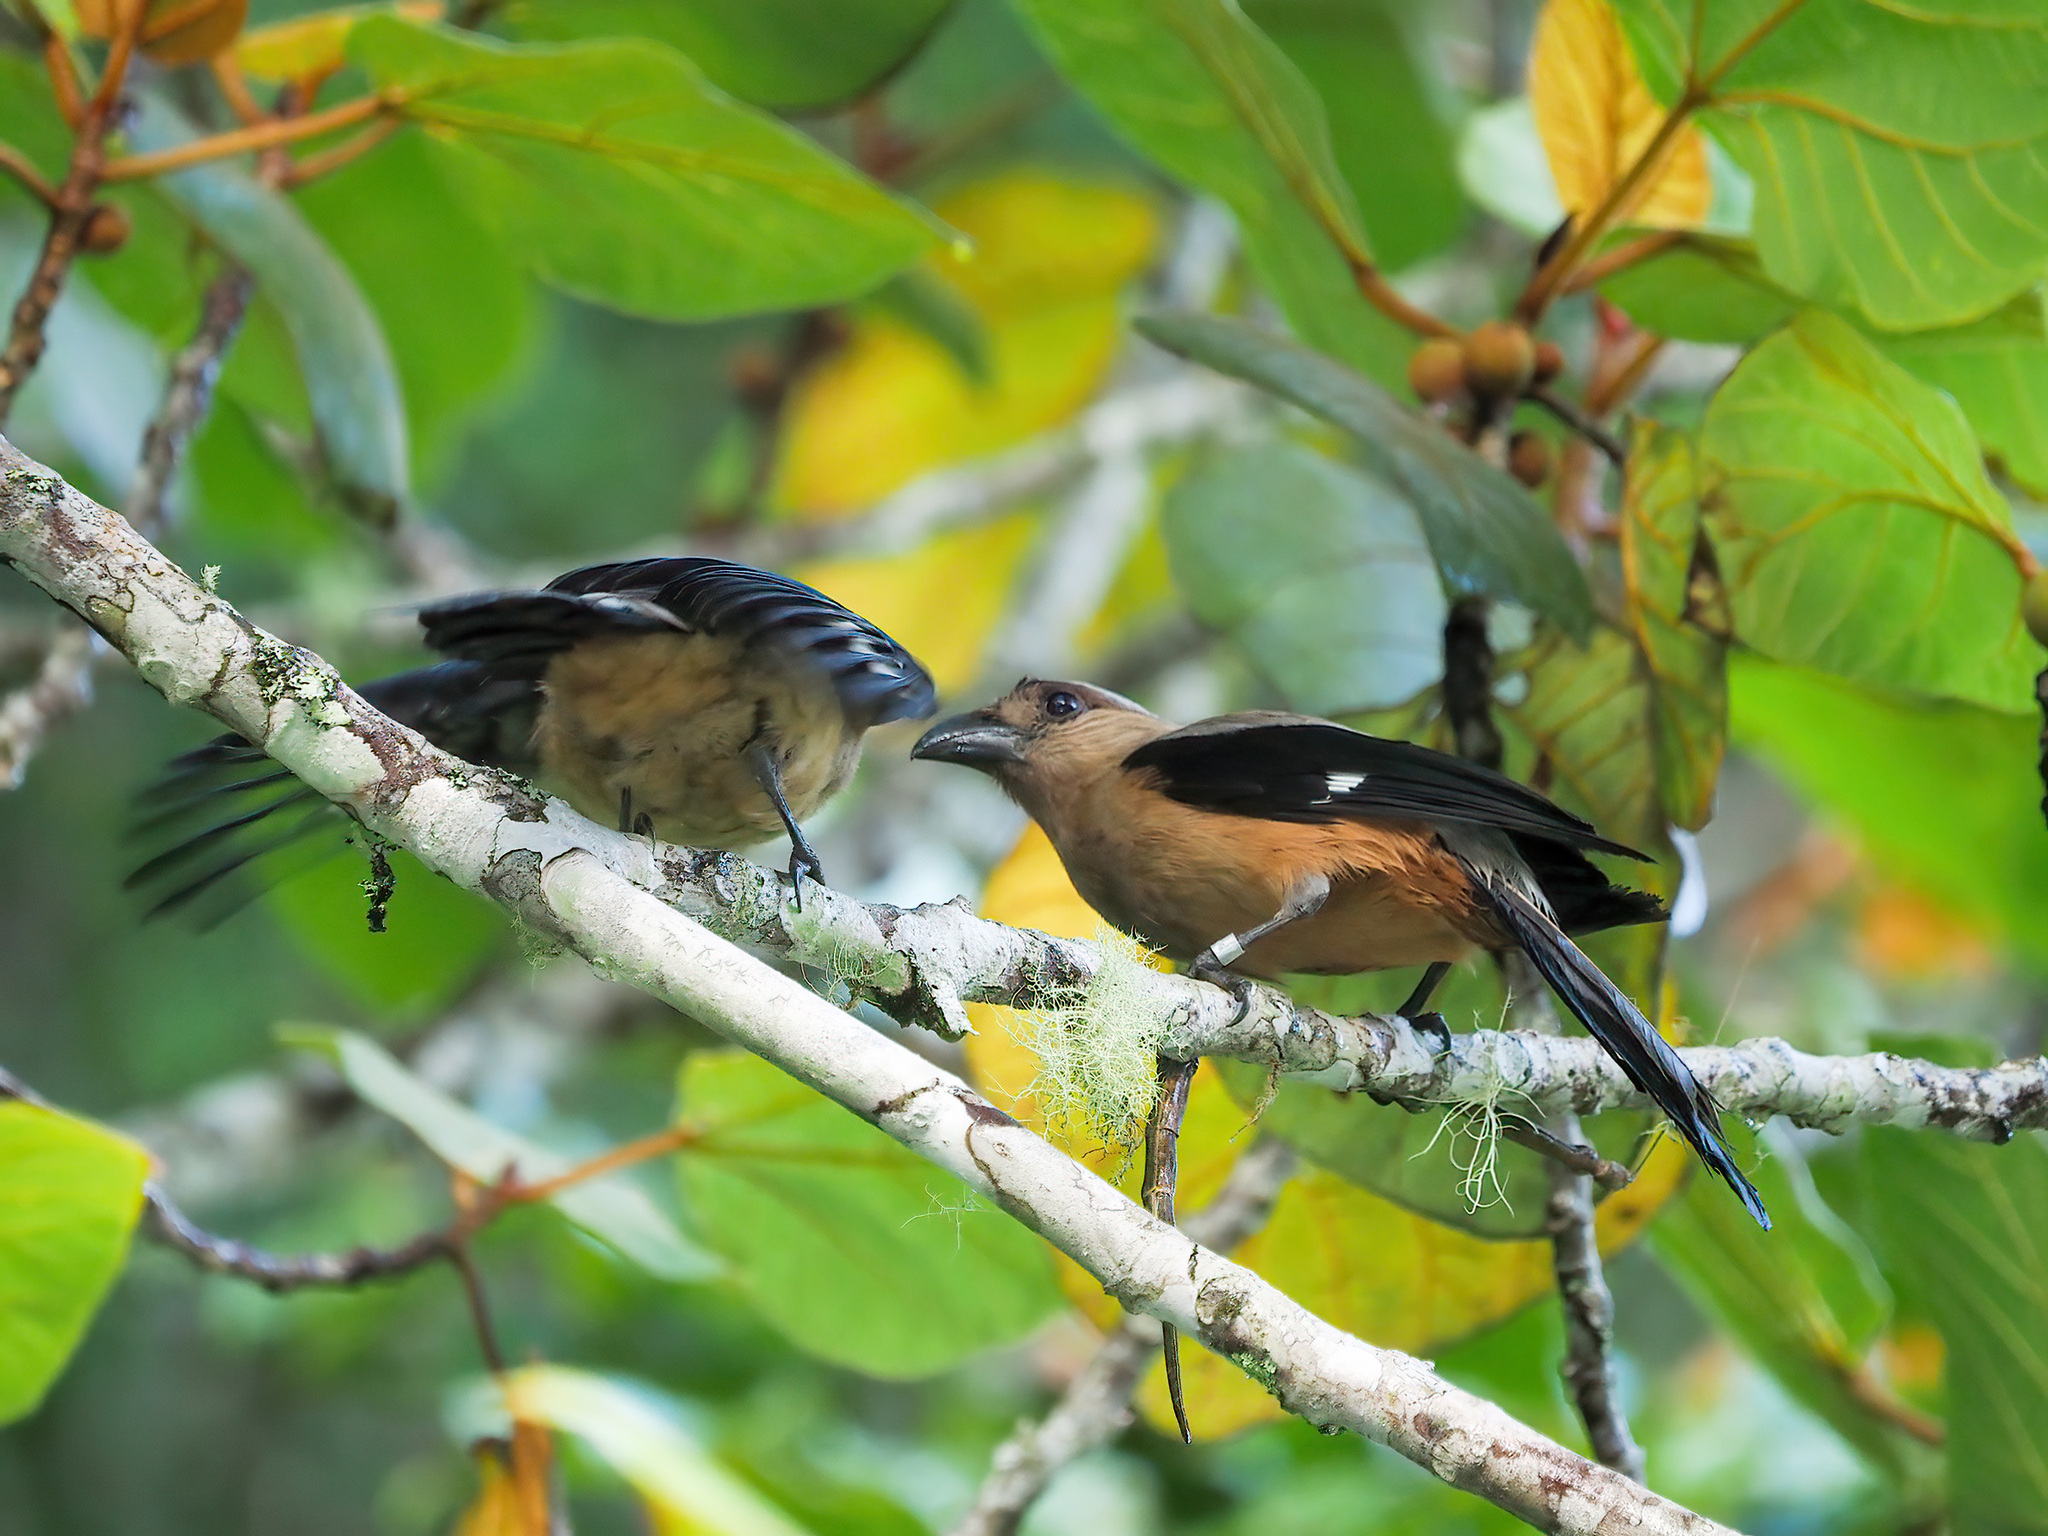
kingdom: Animalia
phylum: Chordata
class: Aves
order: Passeriformes
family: Corvidae
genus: Dendrocitta
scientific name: Dendrocitta cinerascens
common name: Bornean treepie
